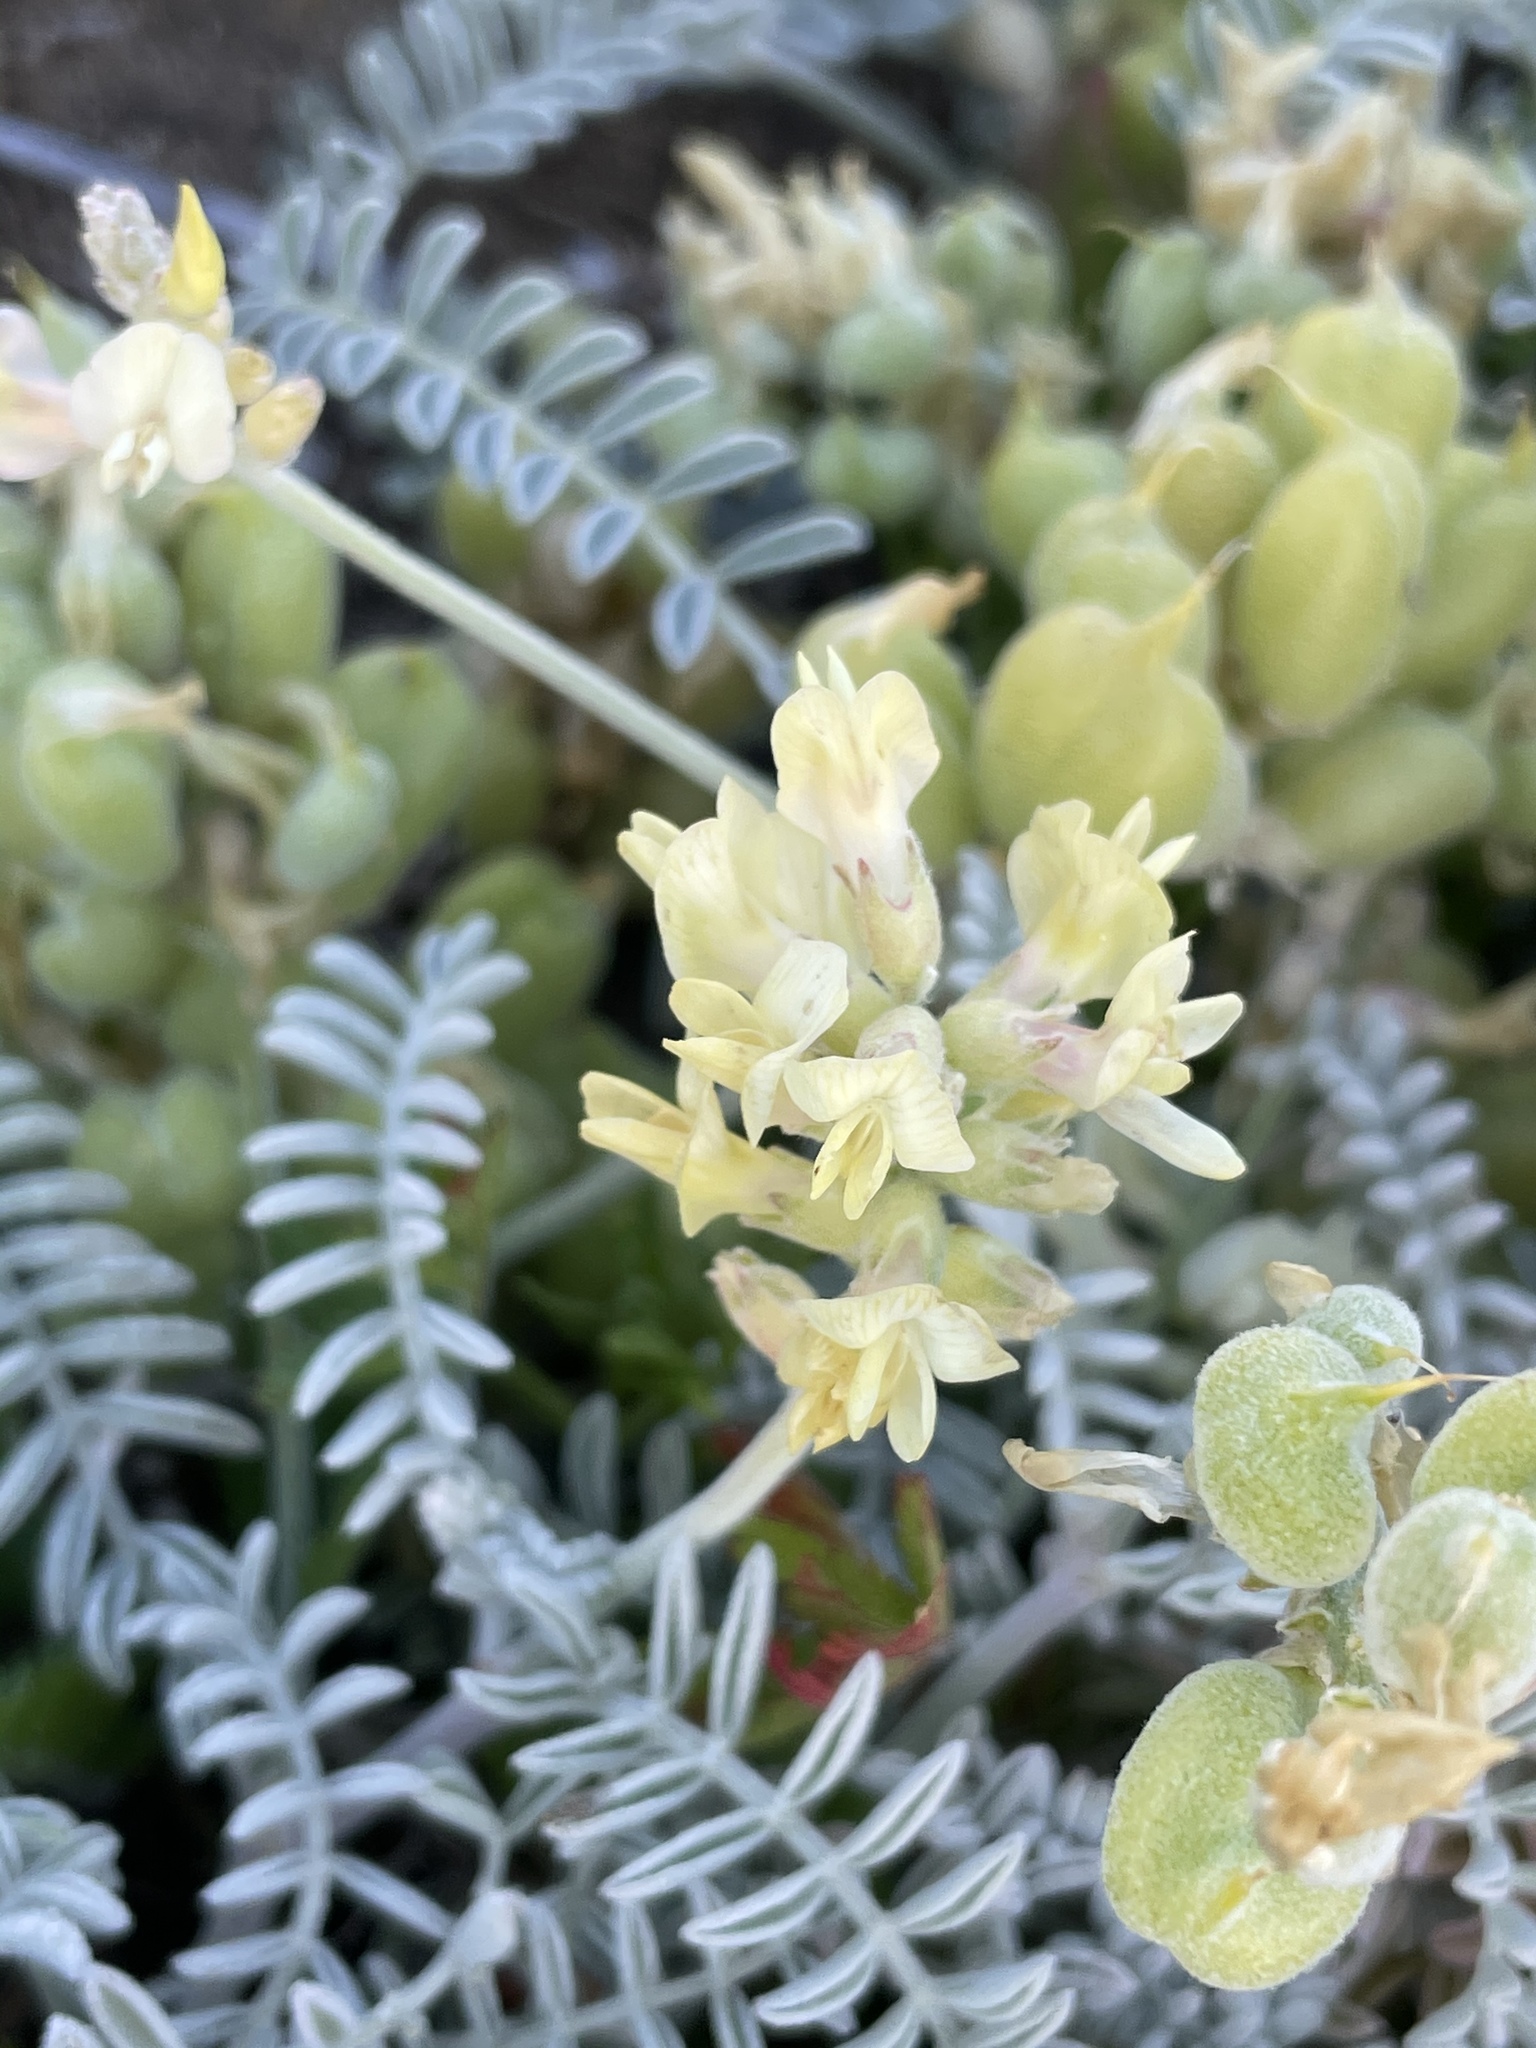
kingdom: Plantae
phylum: Tracheophyta
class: Magnoliopsida
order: Fabales
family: Fabaceae
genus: Astragalus
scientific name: Astragalus miguelensis
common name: San miguel milk-vetch
